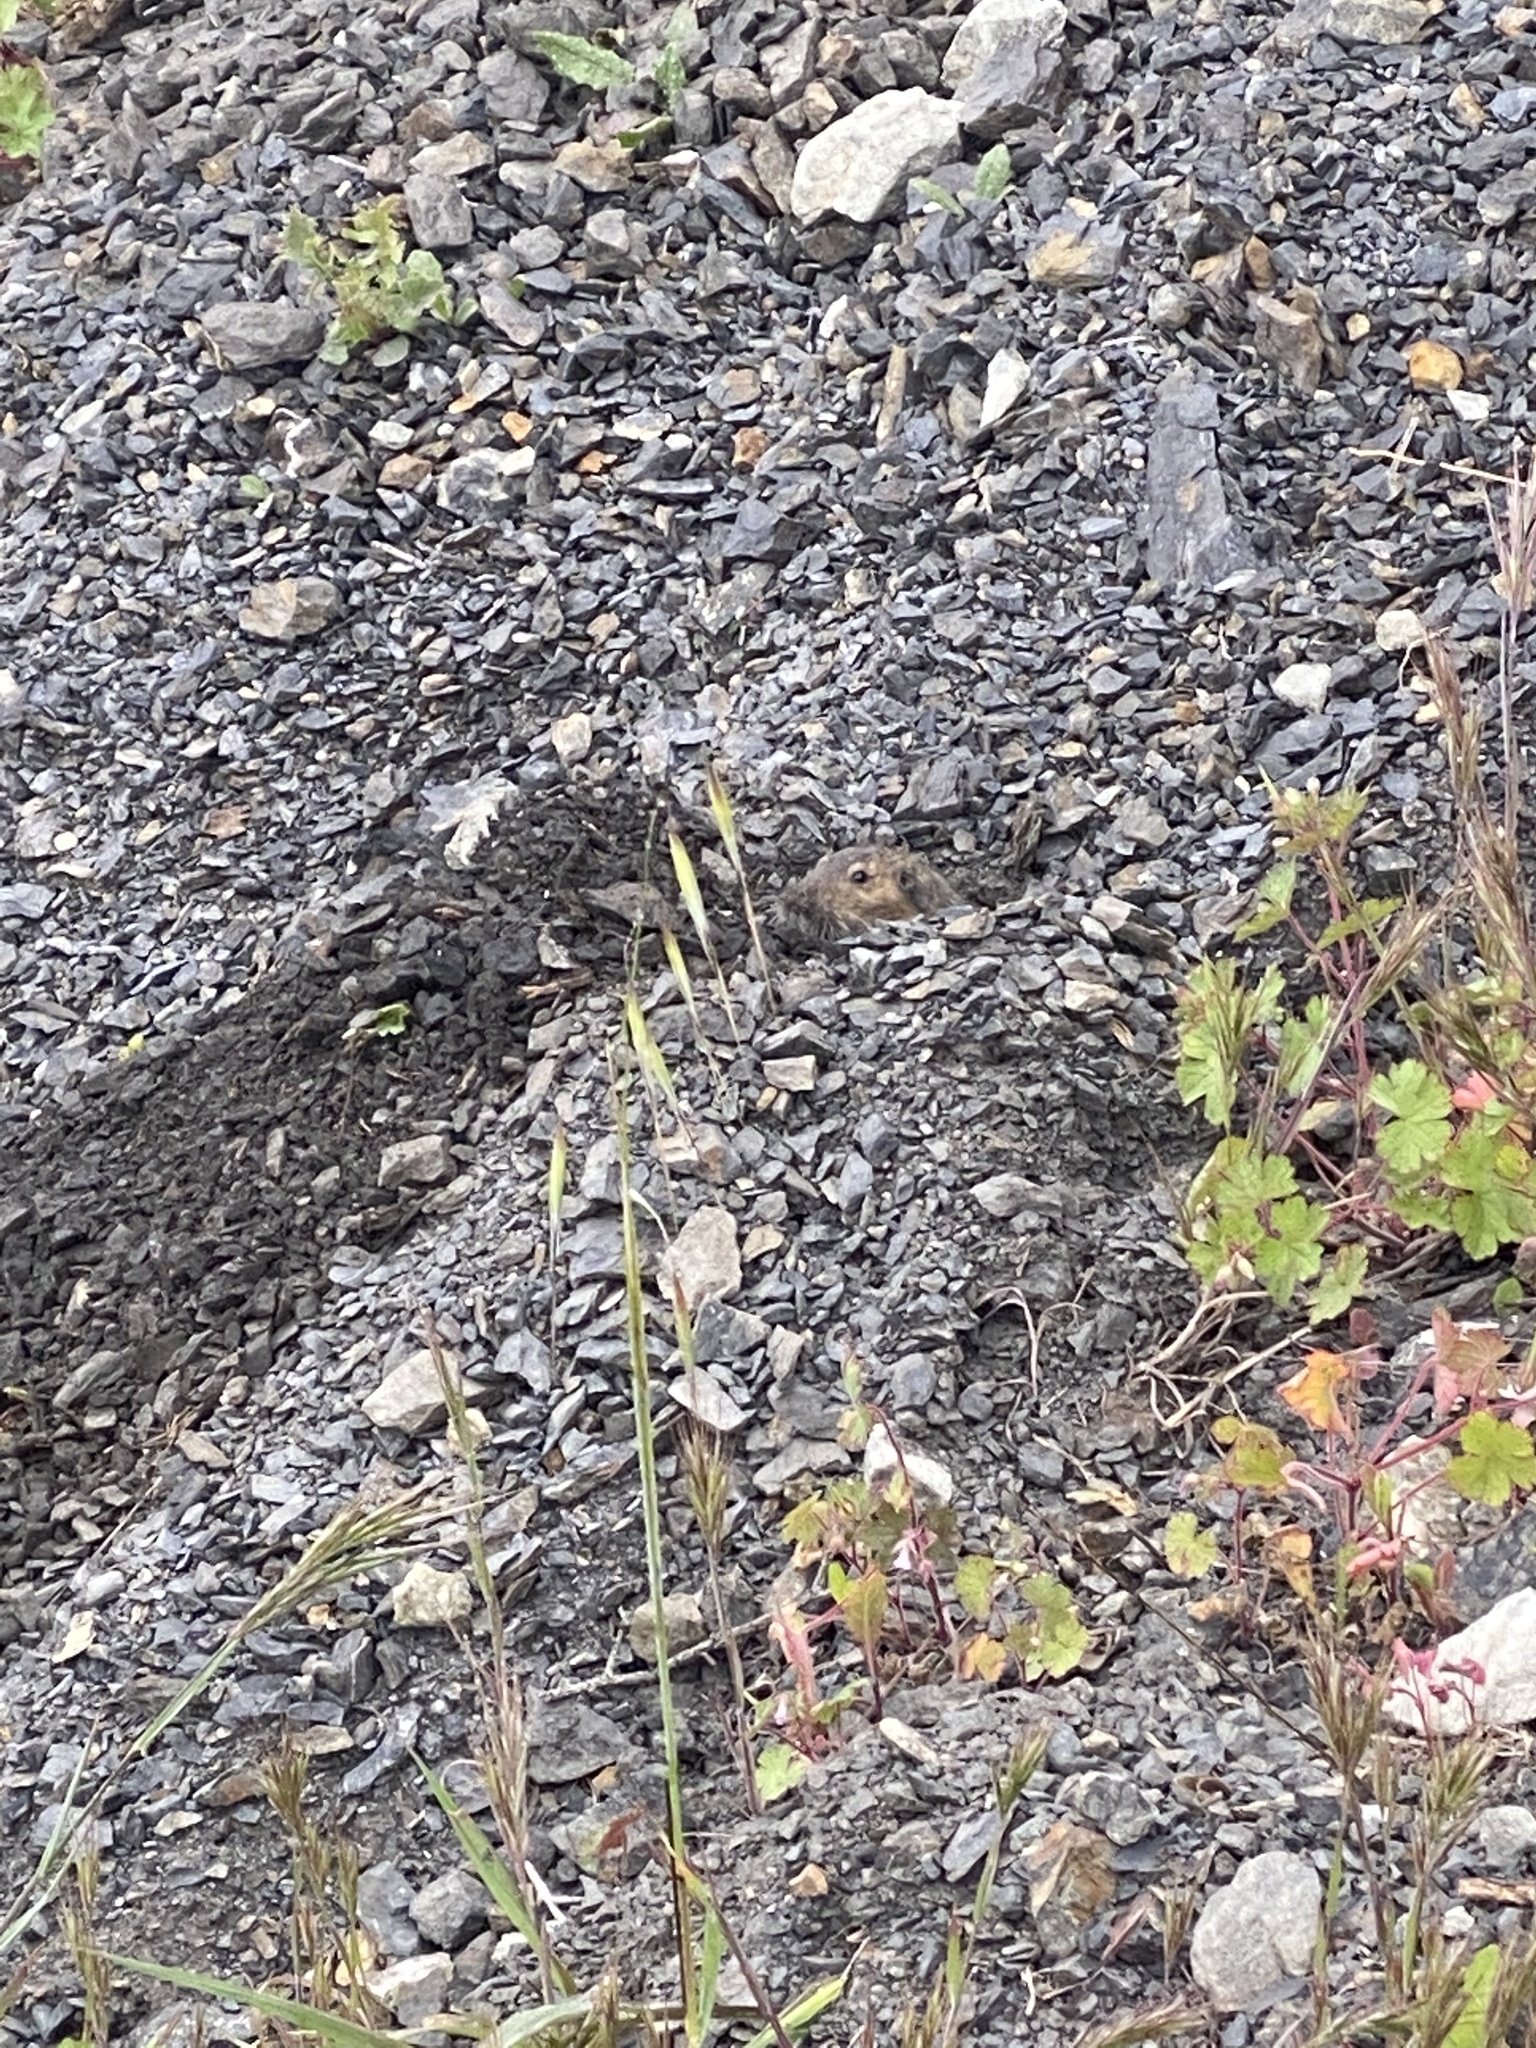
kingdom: Animalia
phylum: Chordata
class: Mammalia
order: Rodentia
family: Geomyidae
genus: Thomomys
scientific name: Thomomys bottae
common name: Botta's pocket gopher
